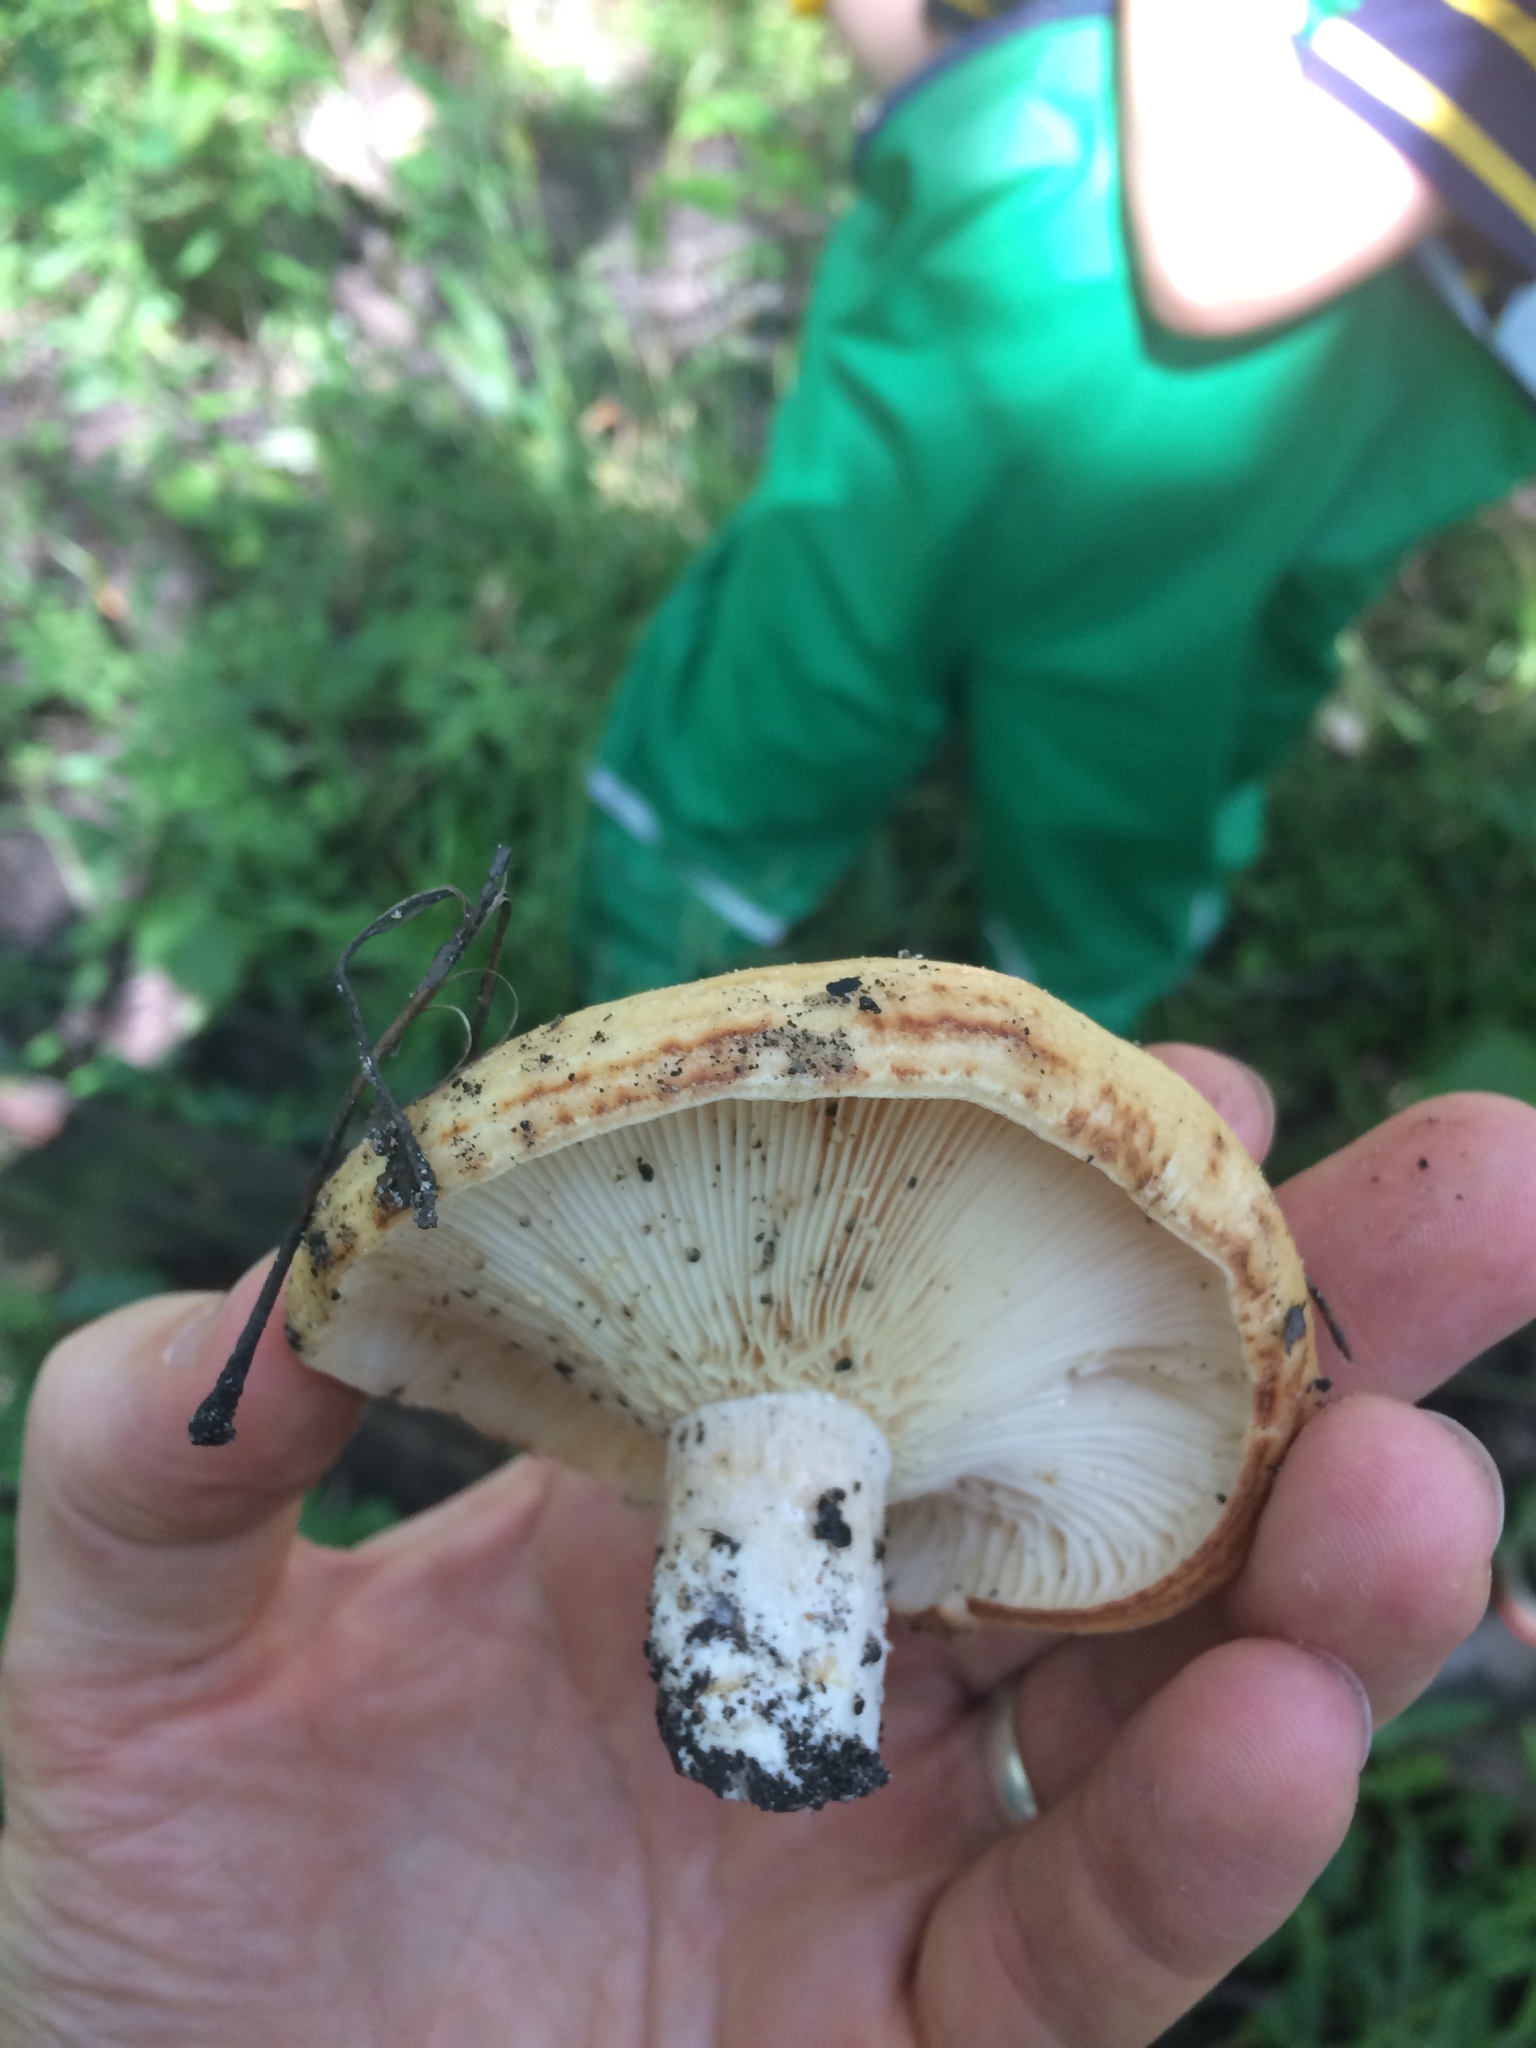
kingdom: Fungi
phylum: Basidiomycota
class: Agaricomycetes
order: Russulales
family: Russulaceae
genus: Lactarius
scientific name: Lactarius psammicola
